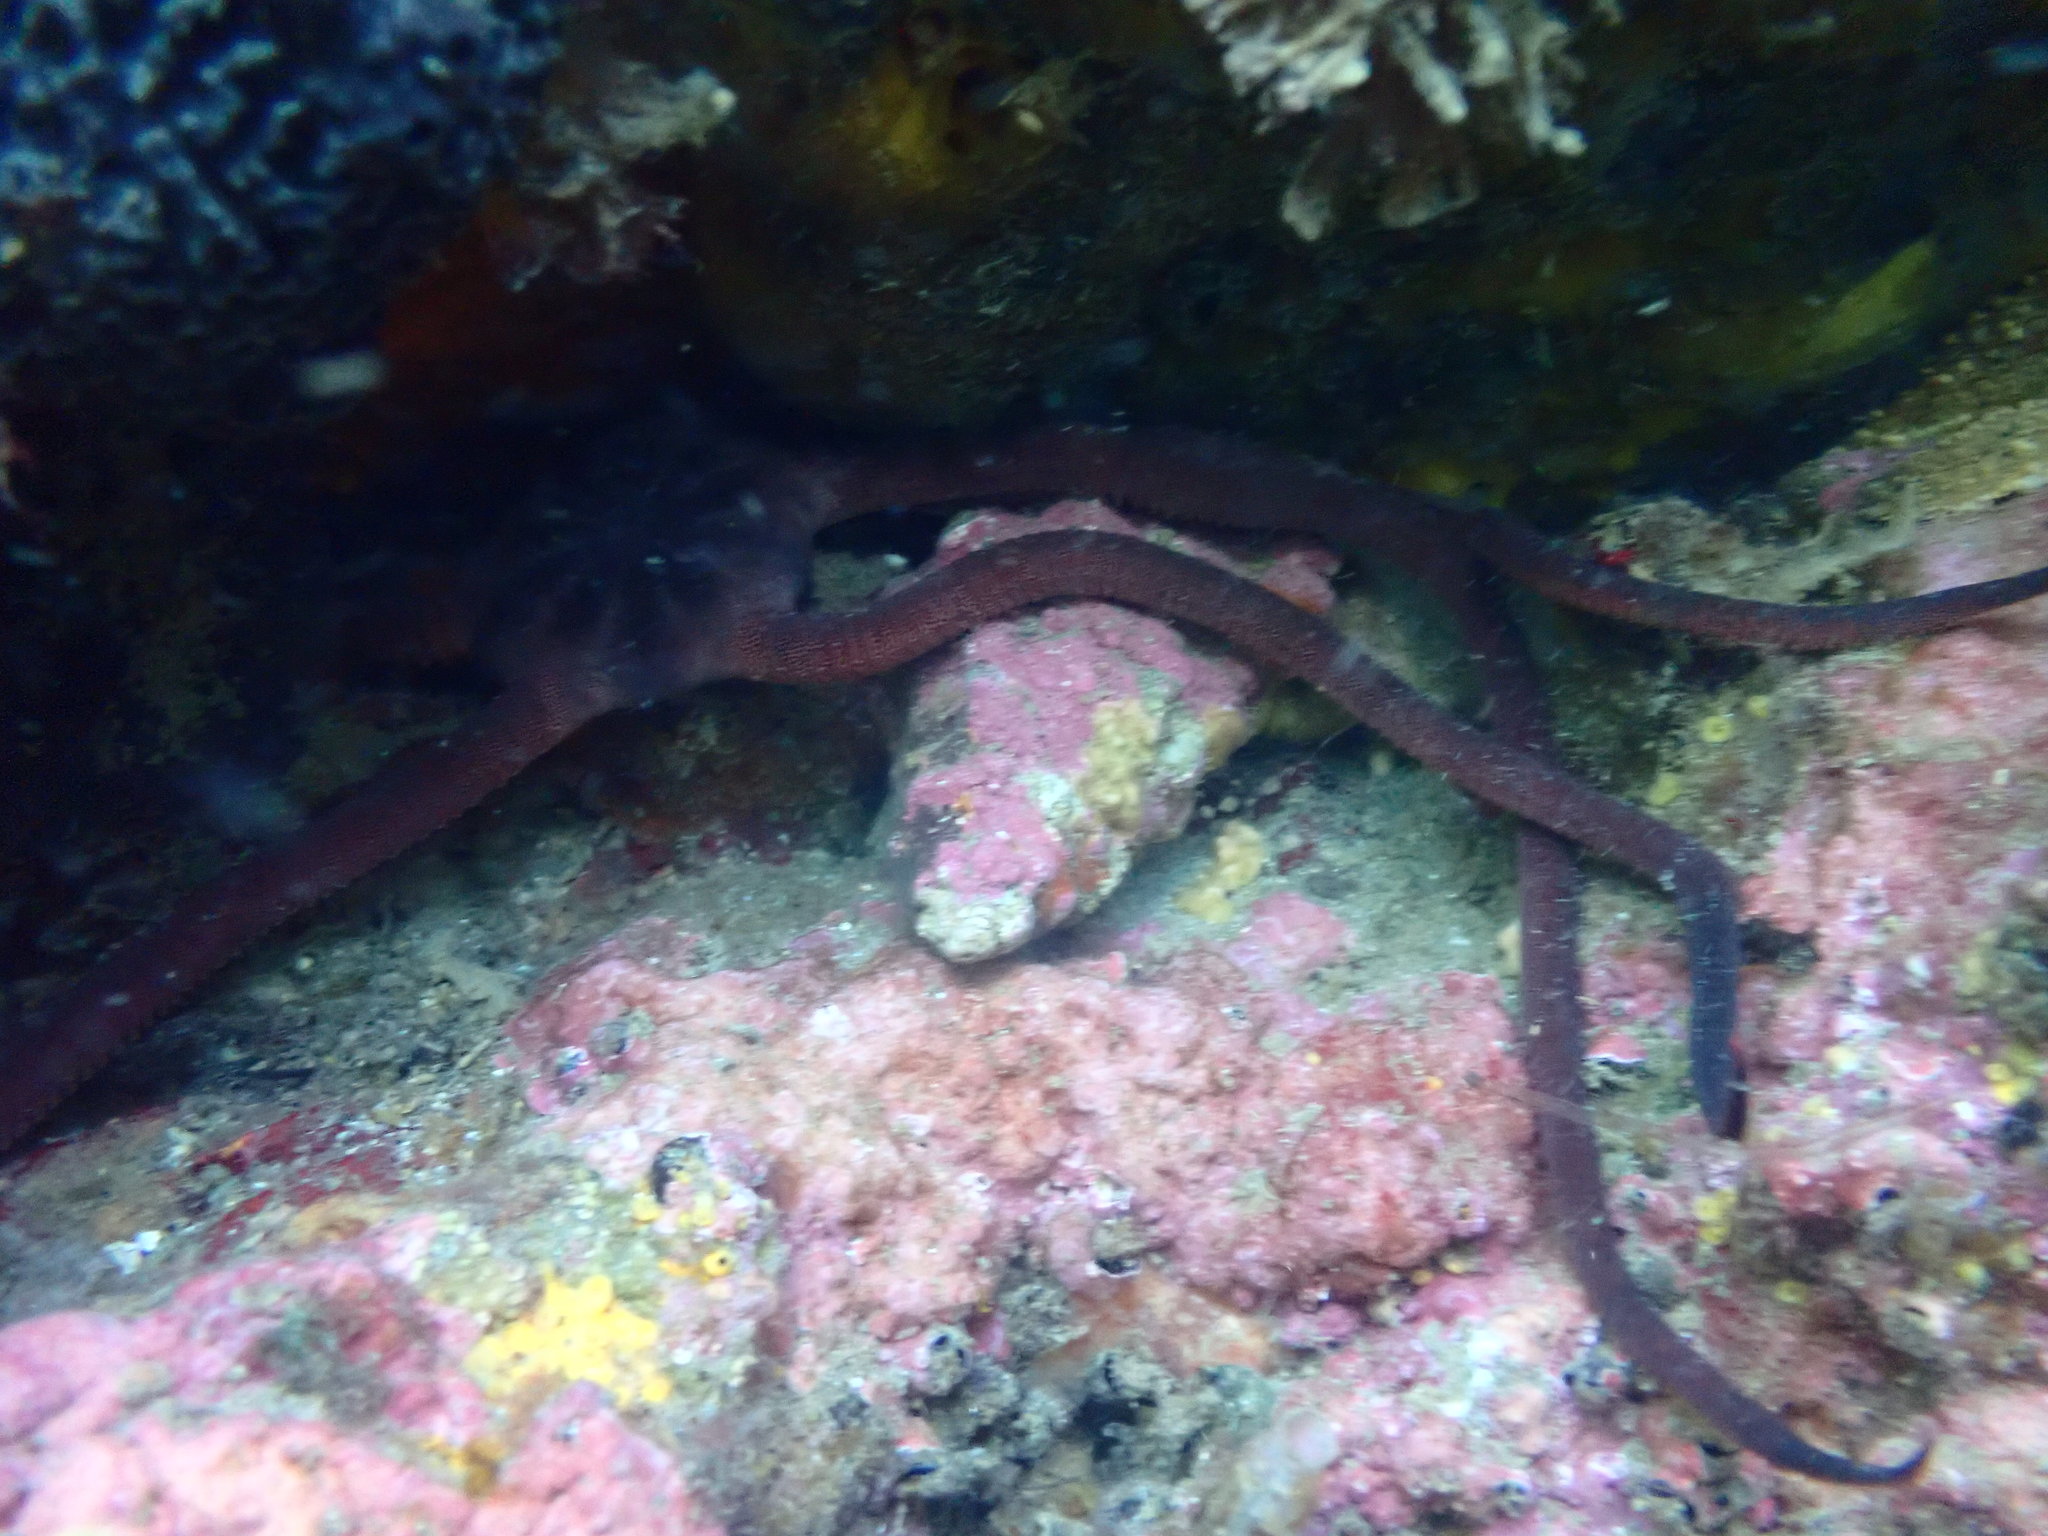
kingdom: Animalia
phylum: Echinodermata
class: Ophiuroidea
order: Ophiacanthida
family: Ophiodermatidae
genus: Ophiopsammus
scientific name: Ophiopsammus maculata
